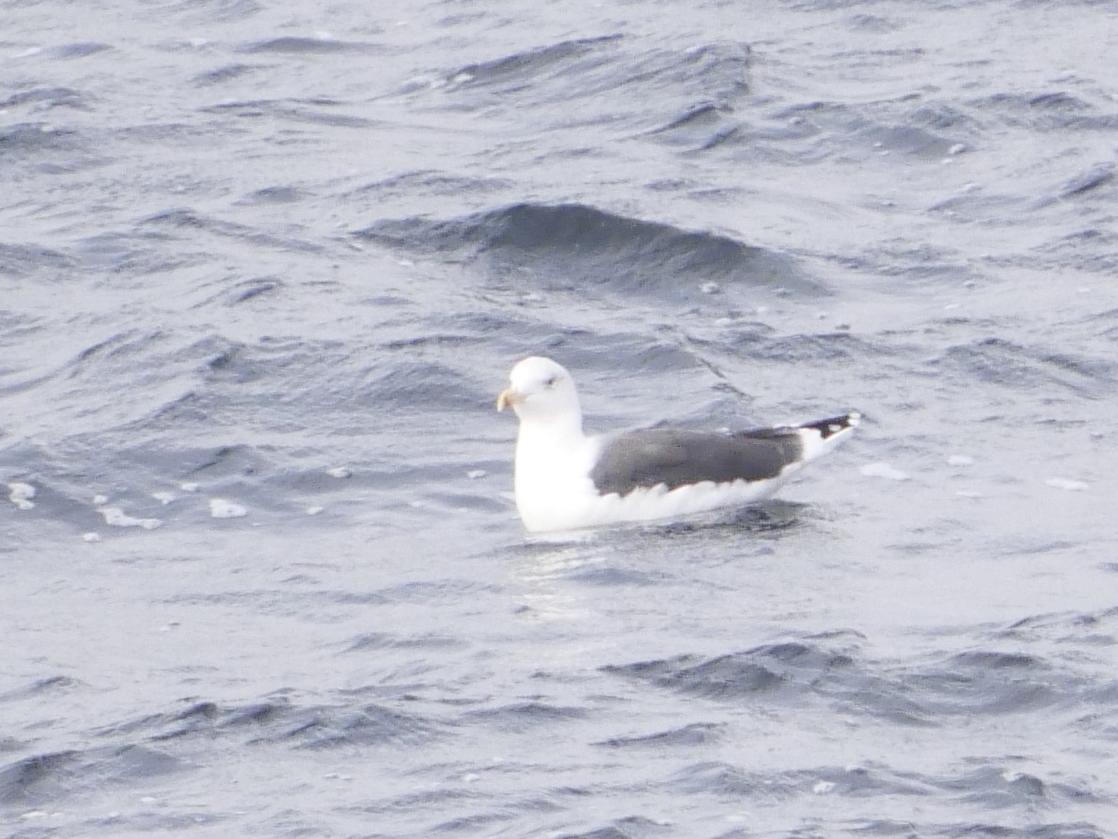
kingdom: Animalia
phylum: Chordata
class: Aves
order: Charadriiformes
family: Laridae
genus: Larus
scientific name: Larus marinus
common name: Great black-backed gull
